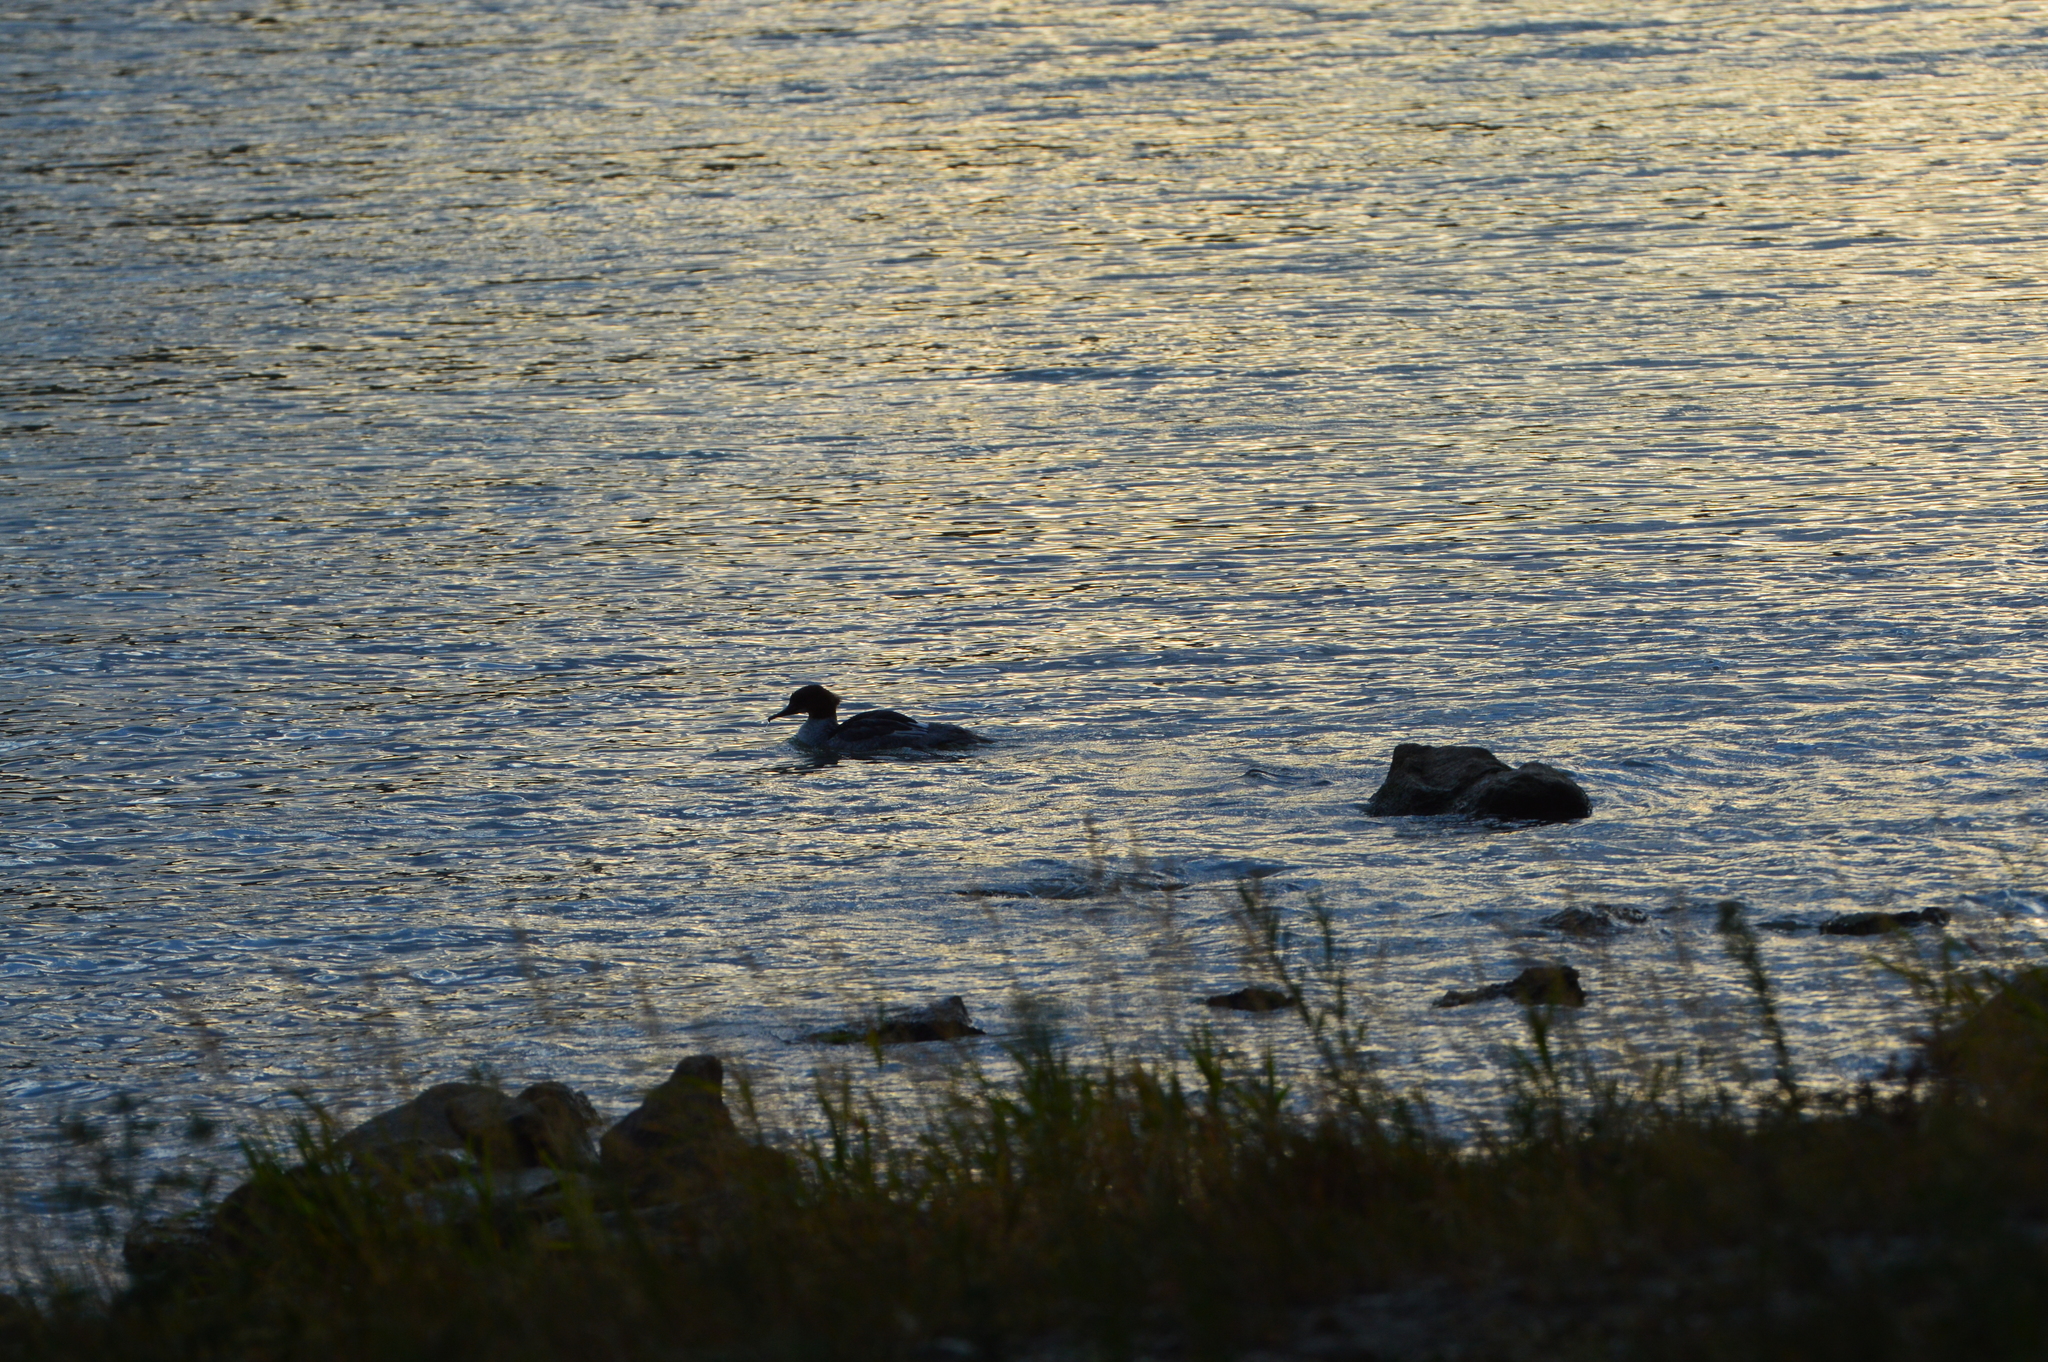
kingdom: Animalia
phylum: Chordata
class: Aves
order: Anseriformes
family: Anatidae
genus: Mergus
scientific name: Mergus merganser
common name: Common merganser
